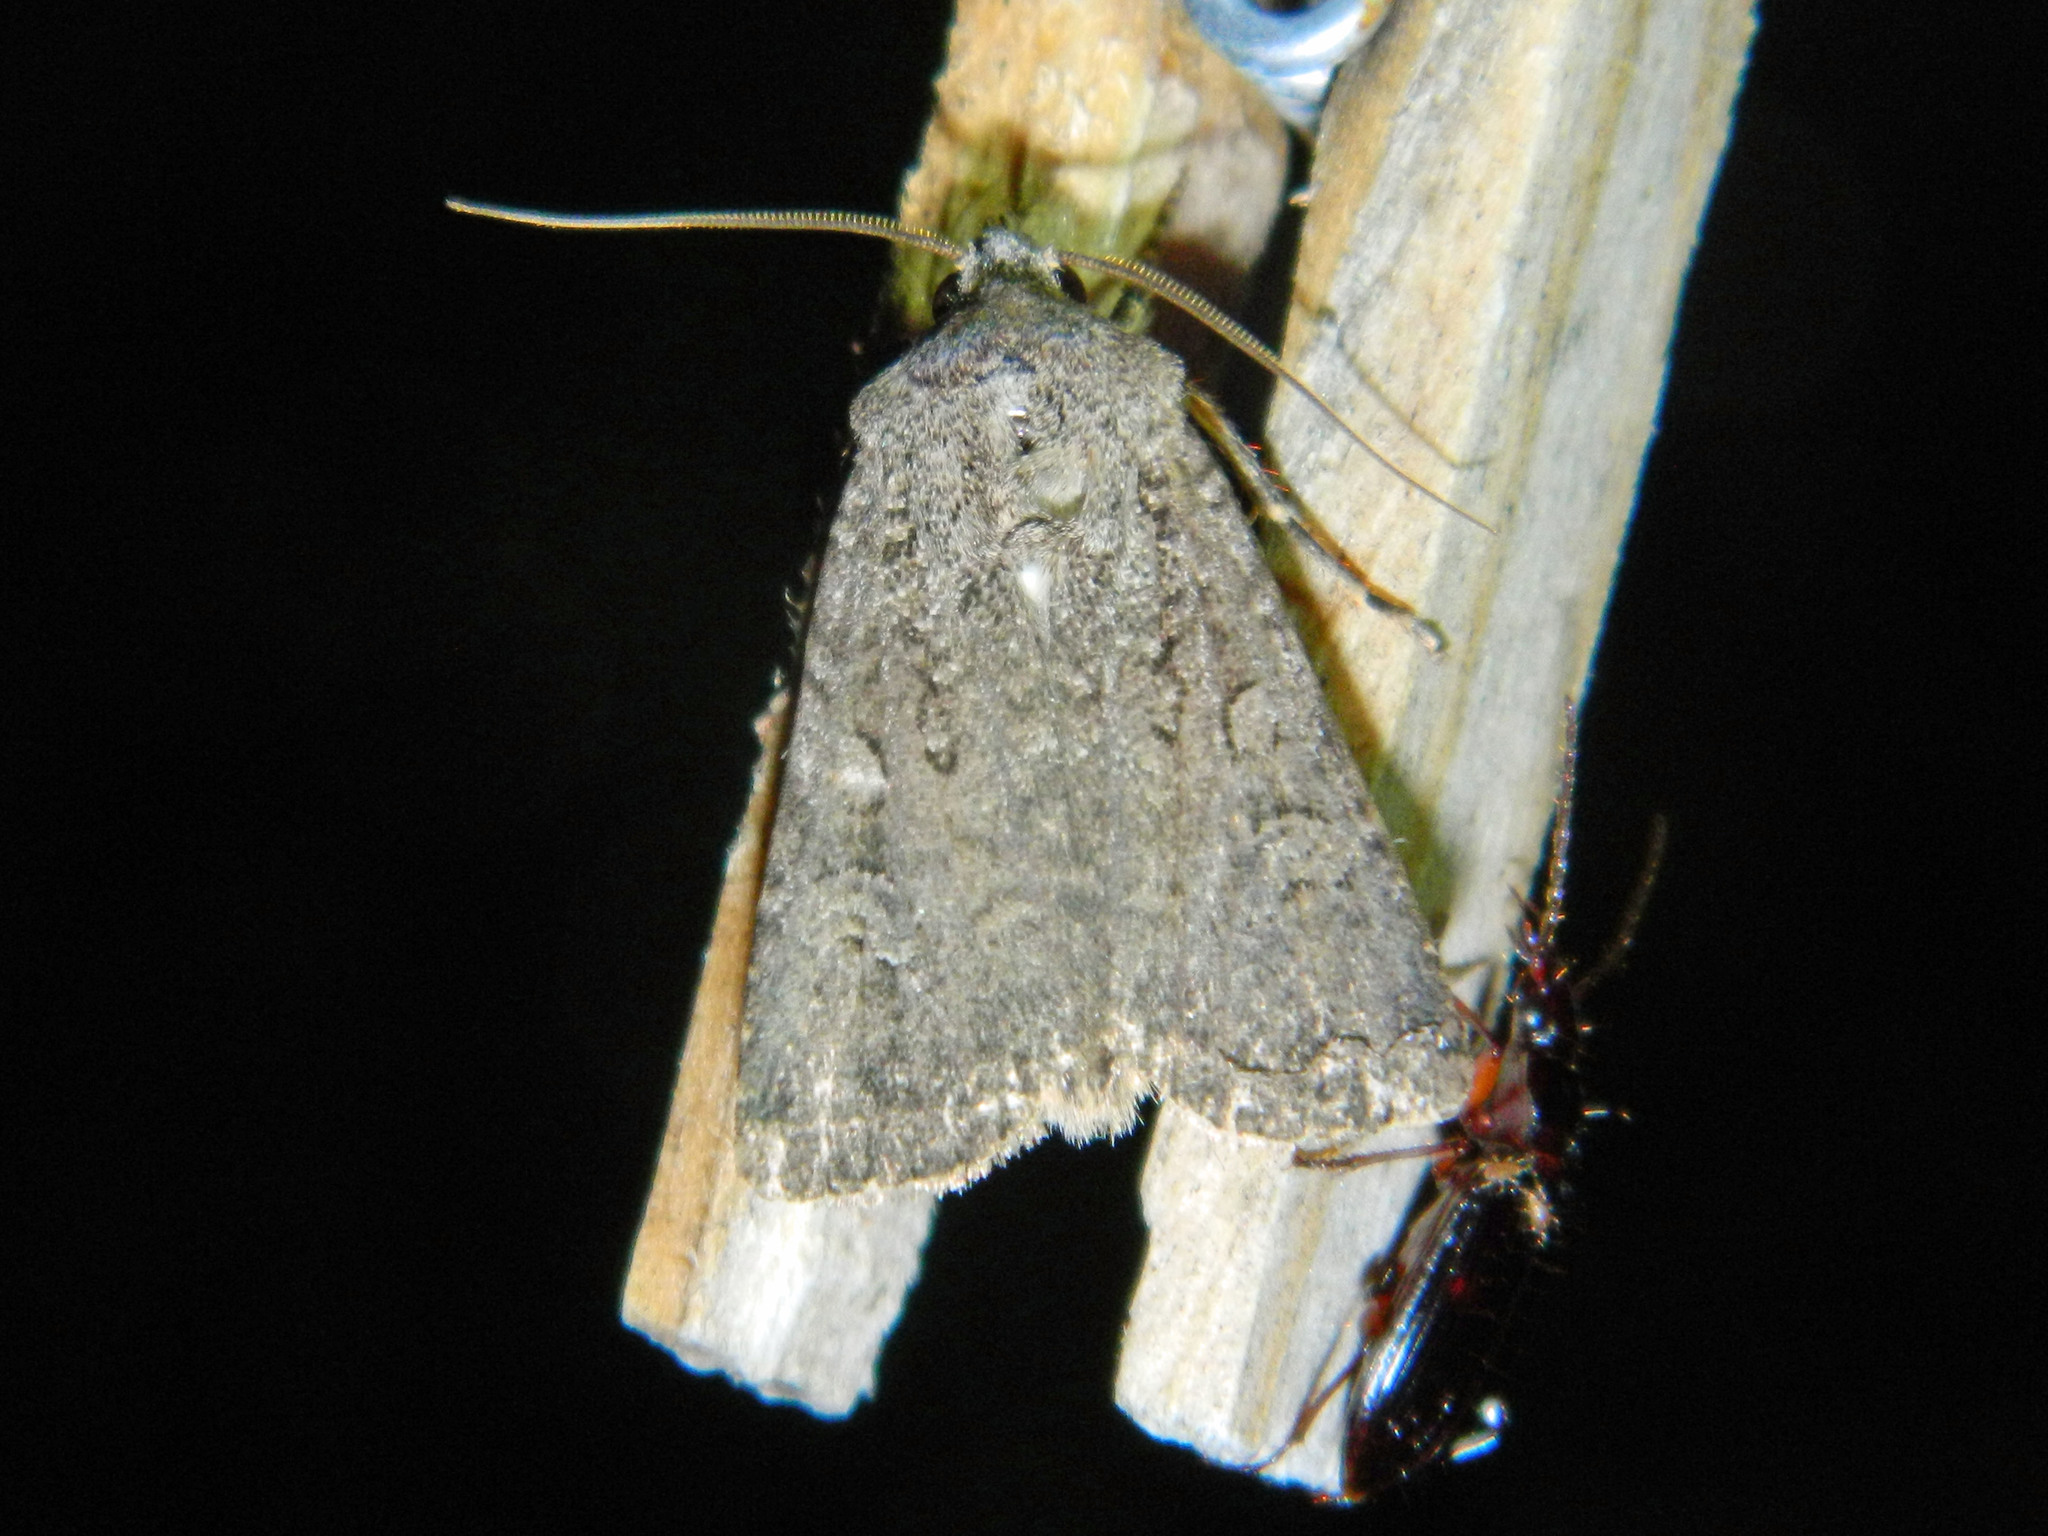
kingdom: Animalia
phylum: Arthropoda
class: Insecta
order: Lepidoptera
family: Noctuidae
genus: Euxoa
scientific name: Euxoa messoria
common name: Darksided cutworm
